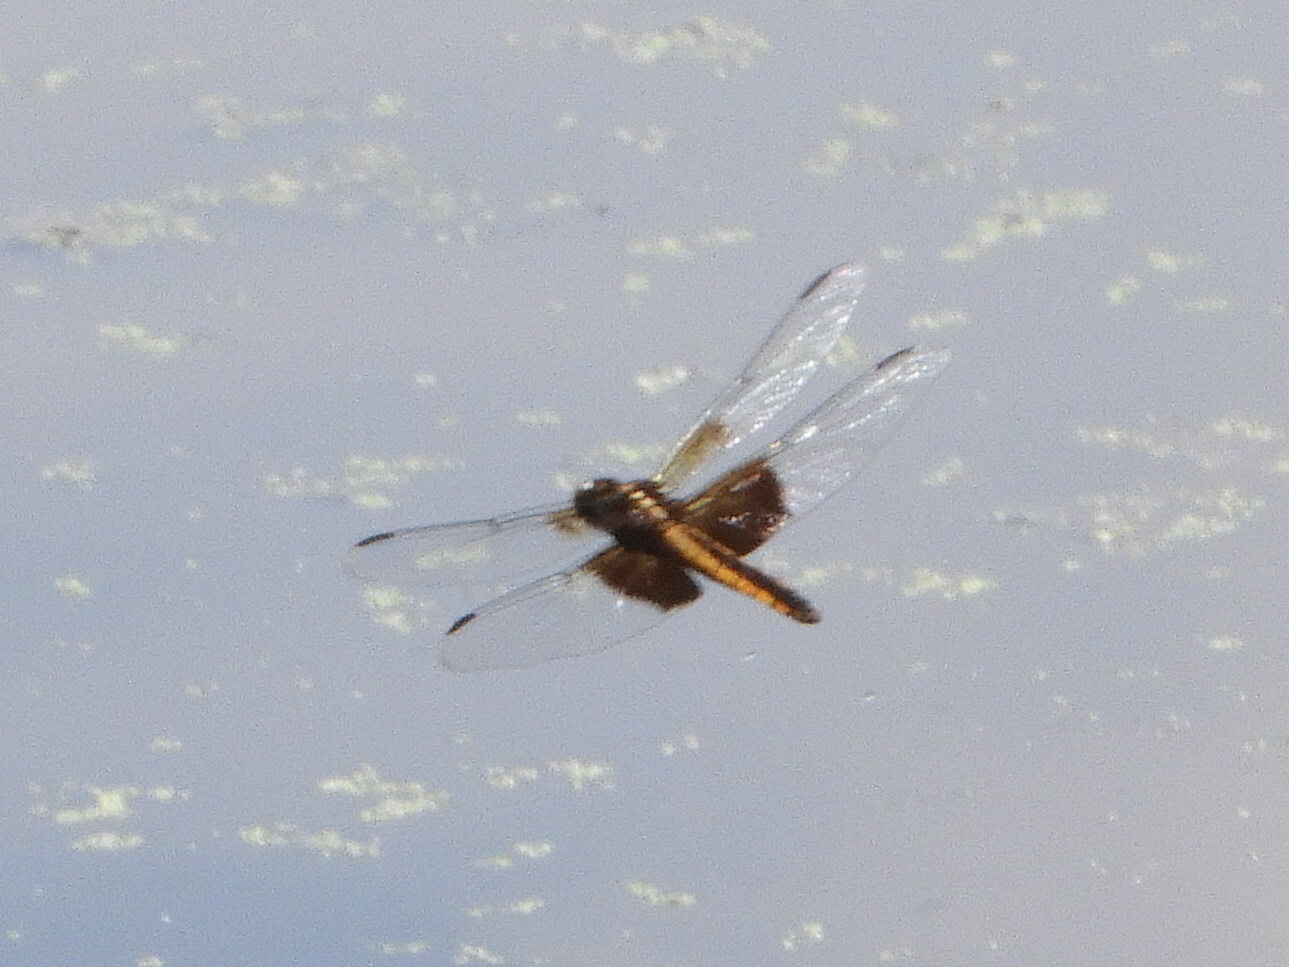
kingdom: Animalia
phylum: Arthropoda
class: Insecta
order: Odonata
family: Libellulidae
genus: Libellula
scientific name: Libellula luctuosa
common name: Widow skimmer
